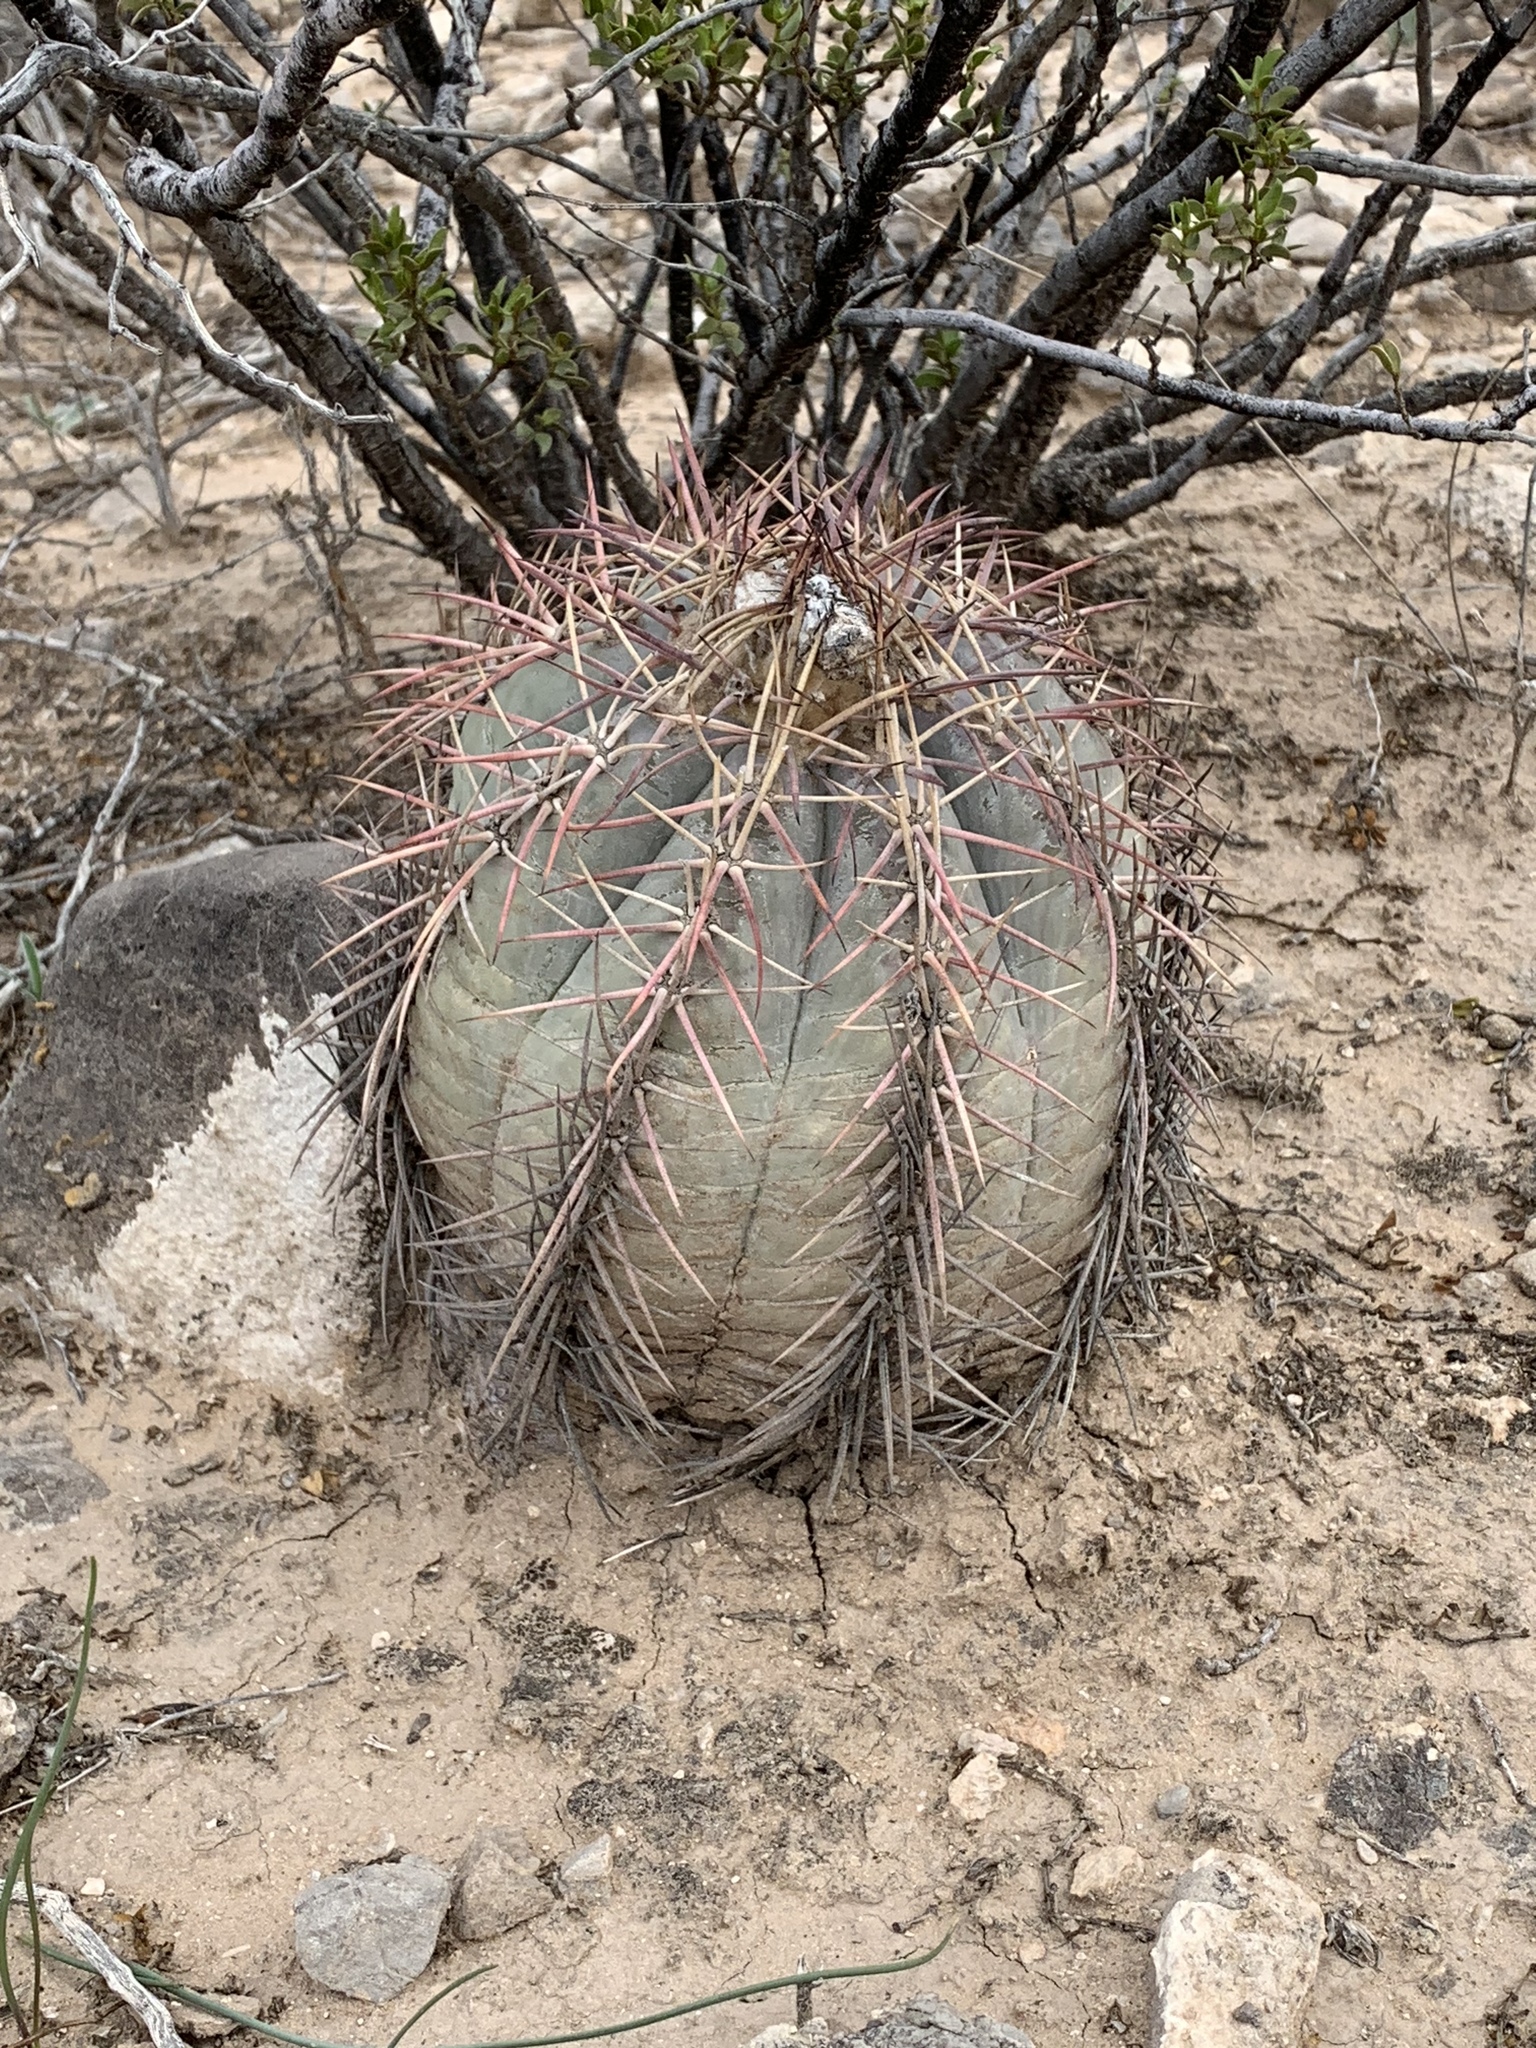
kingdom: Plantae
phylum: Tracheophyta
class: Magnoliopsida
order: Caryophyllales
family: Cactaceae
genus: Echinocactus
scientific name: Echinocactus horizonthalonius
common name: Devilshead
